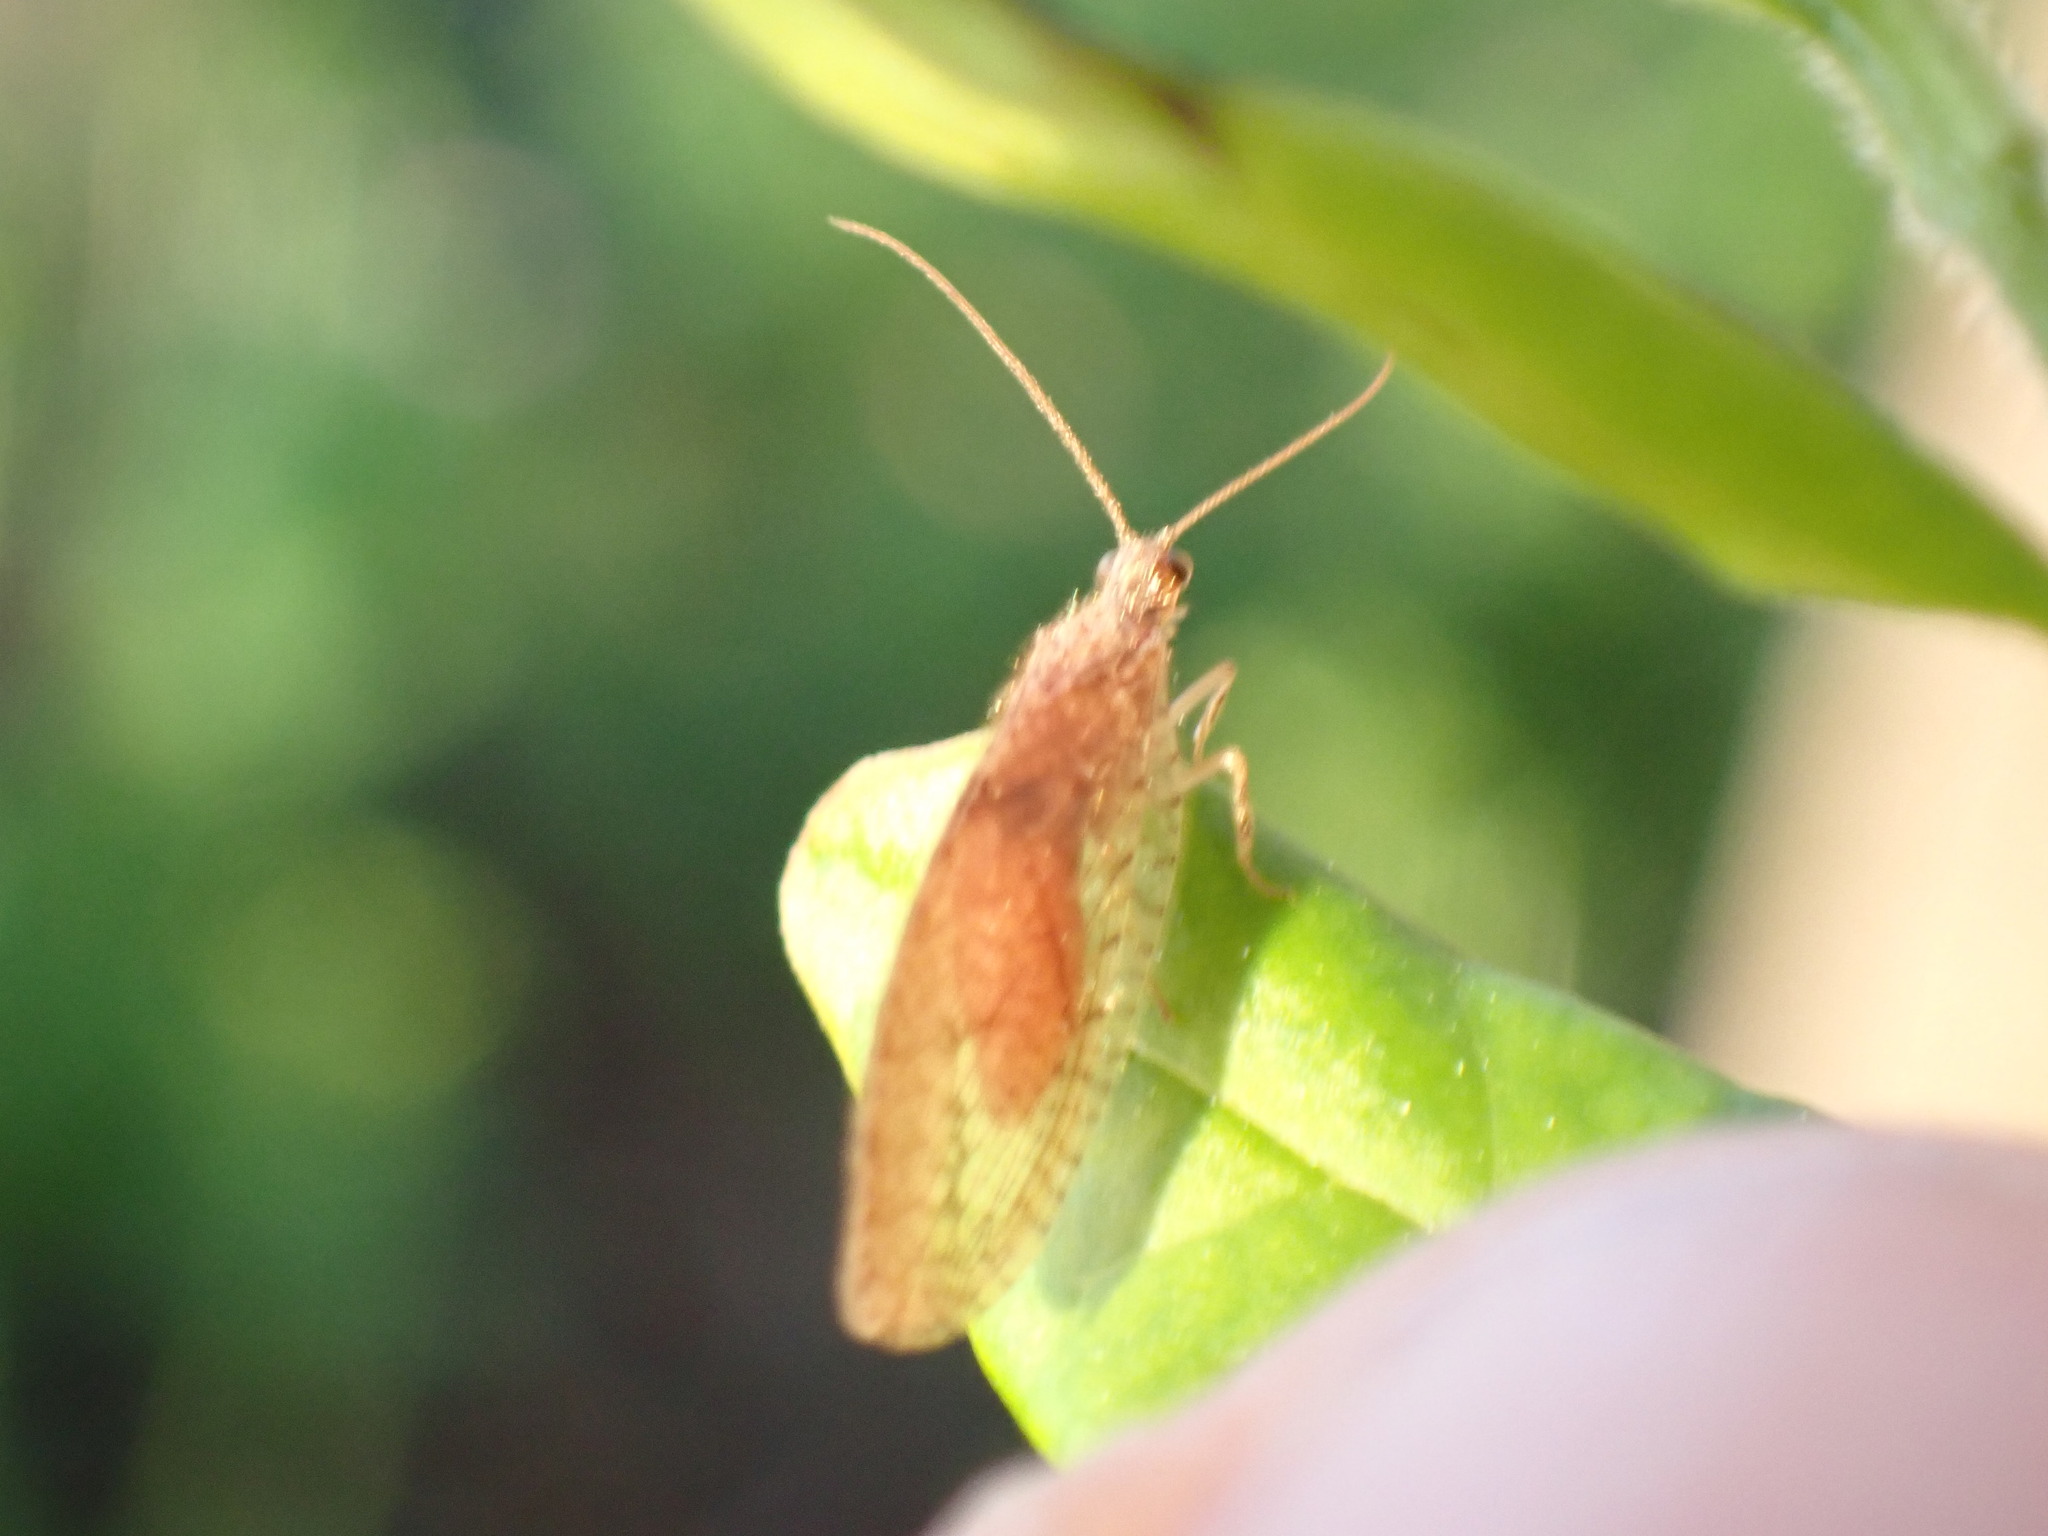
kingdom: Animalia
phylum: Arthropoda
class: Insecta
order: Neuroptera
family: Hemerobiidae
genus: Micromus
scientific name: Micromus posticus
